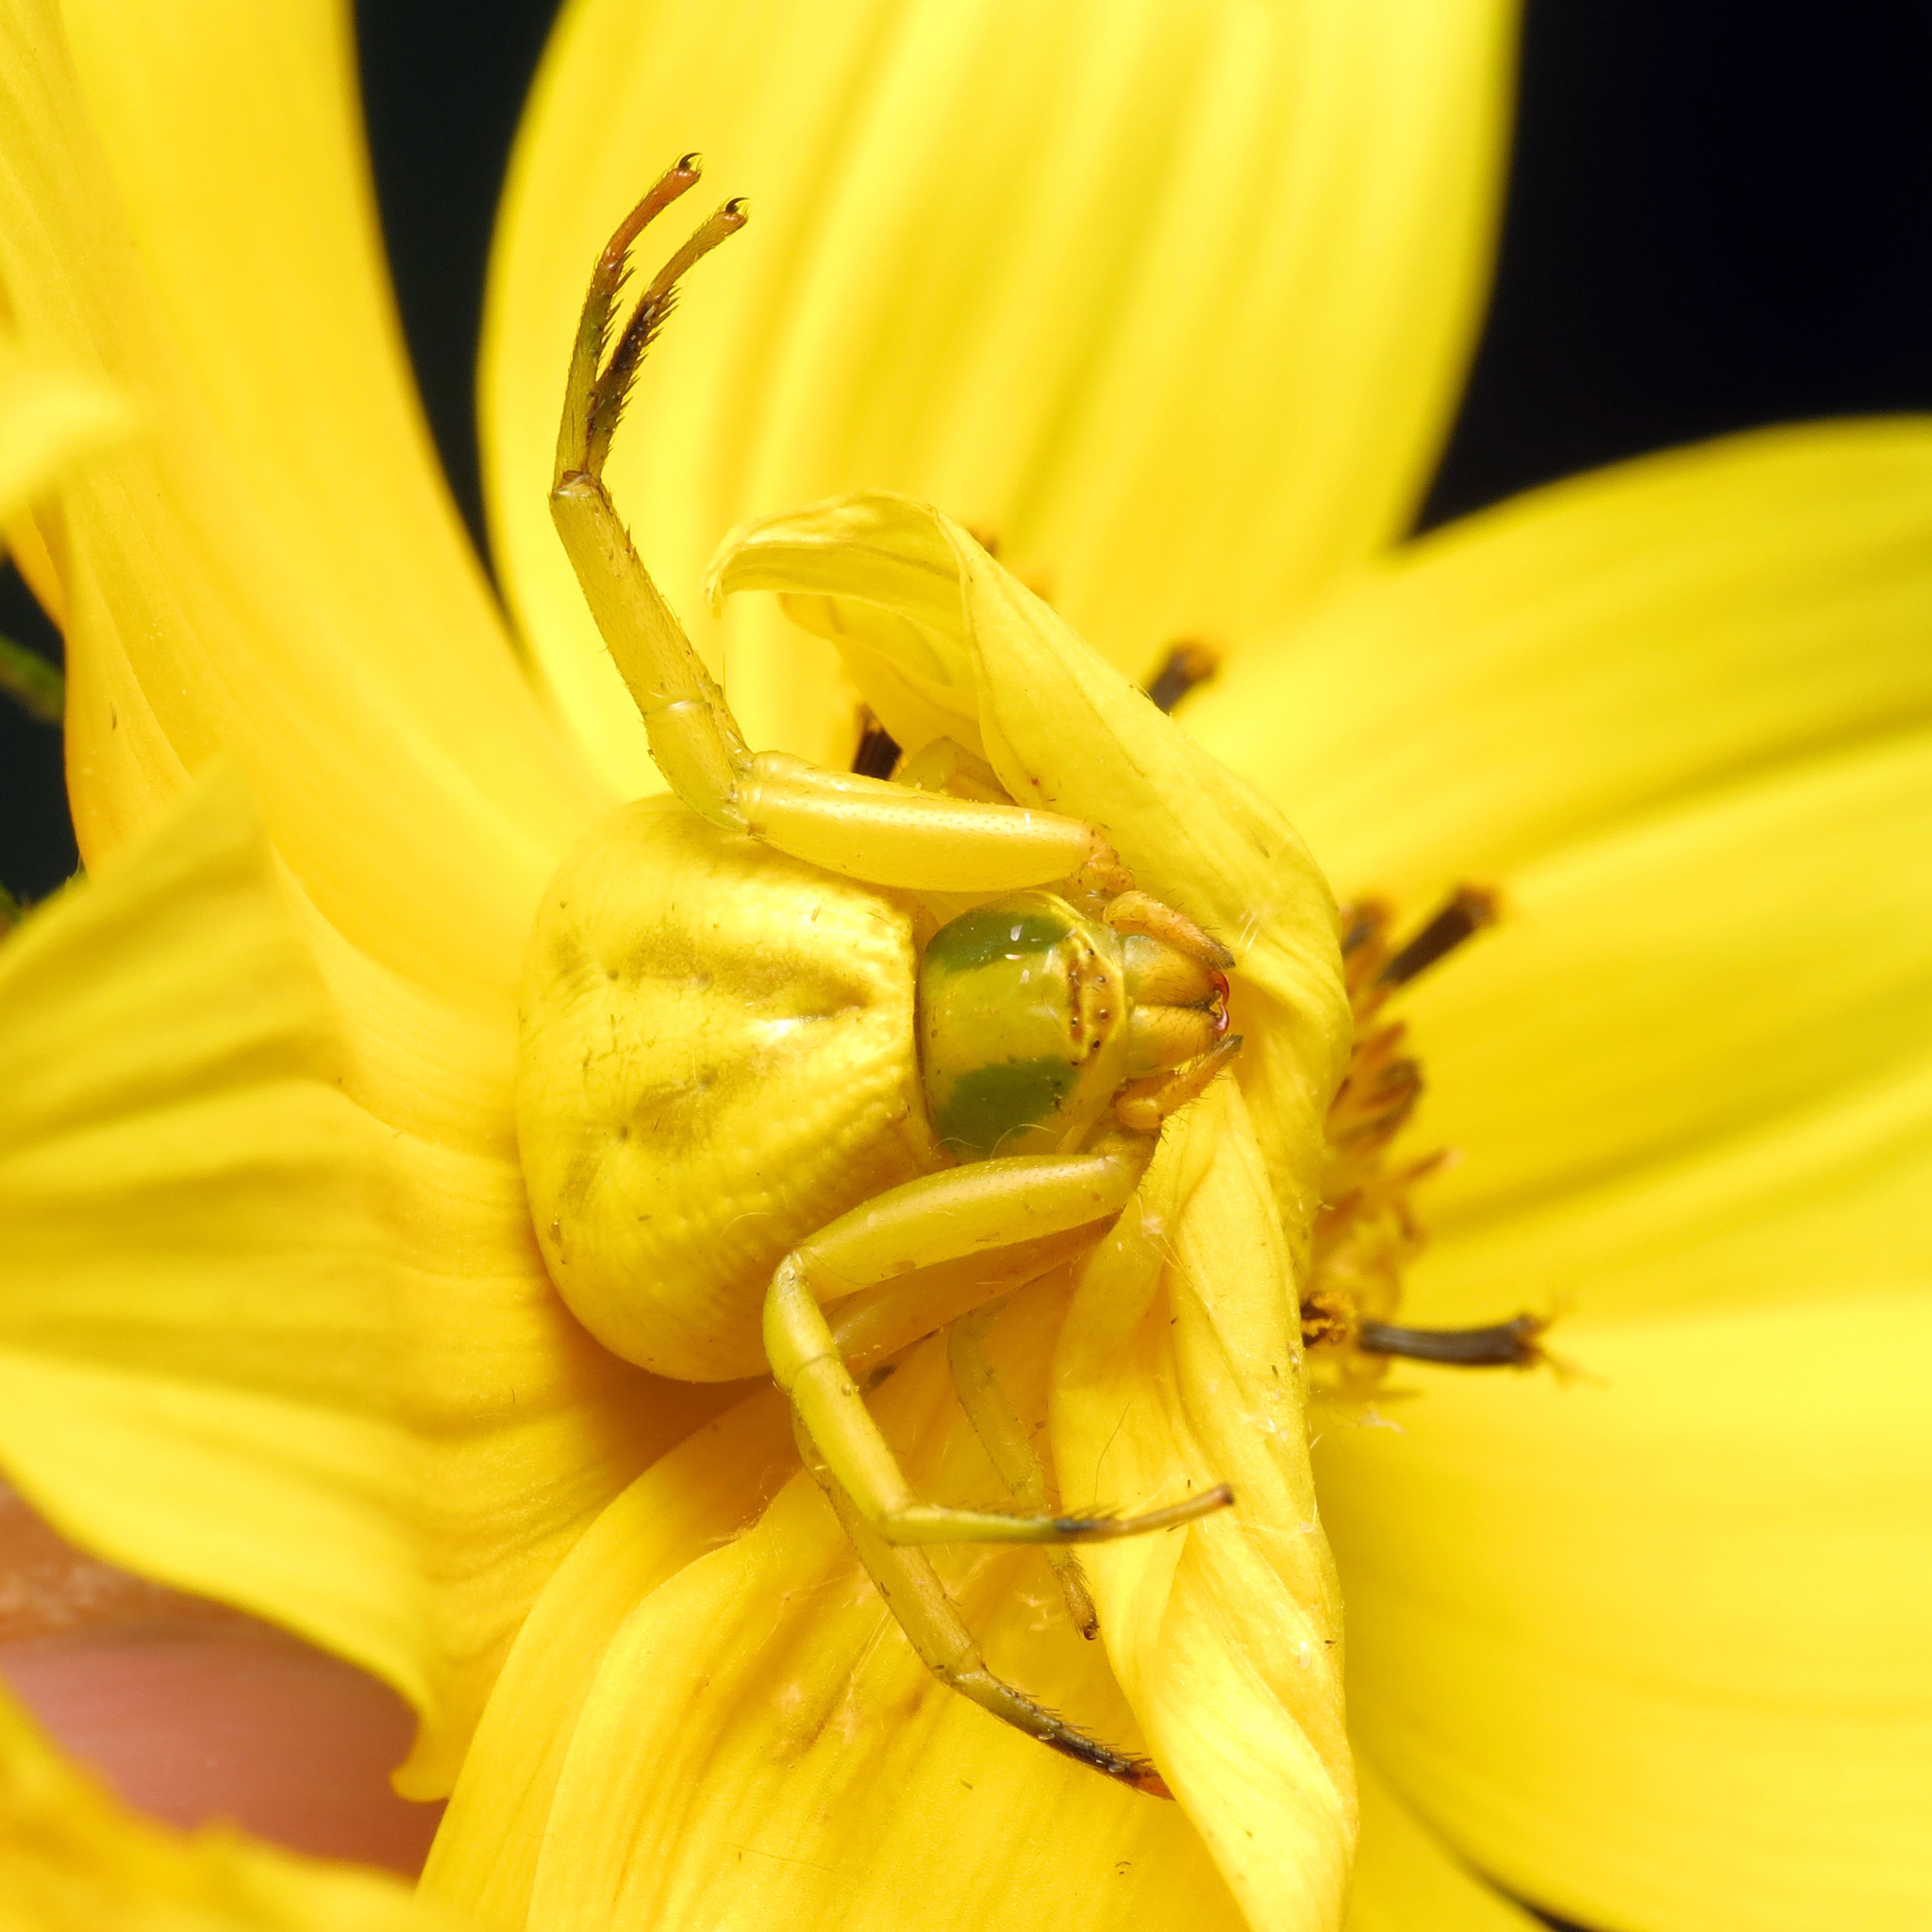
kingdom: Animalia
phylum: Arthropoda
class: Arachnida
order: Araneae
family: Thomisidae
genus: Misumenoides
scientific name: Misumenoides formosipes
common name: White-banded crab spider
